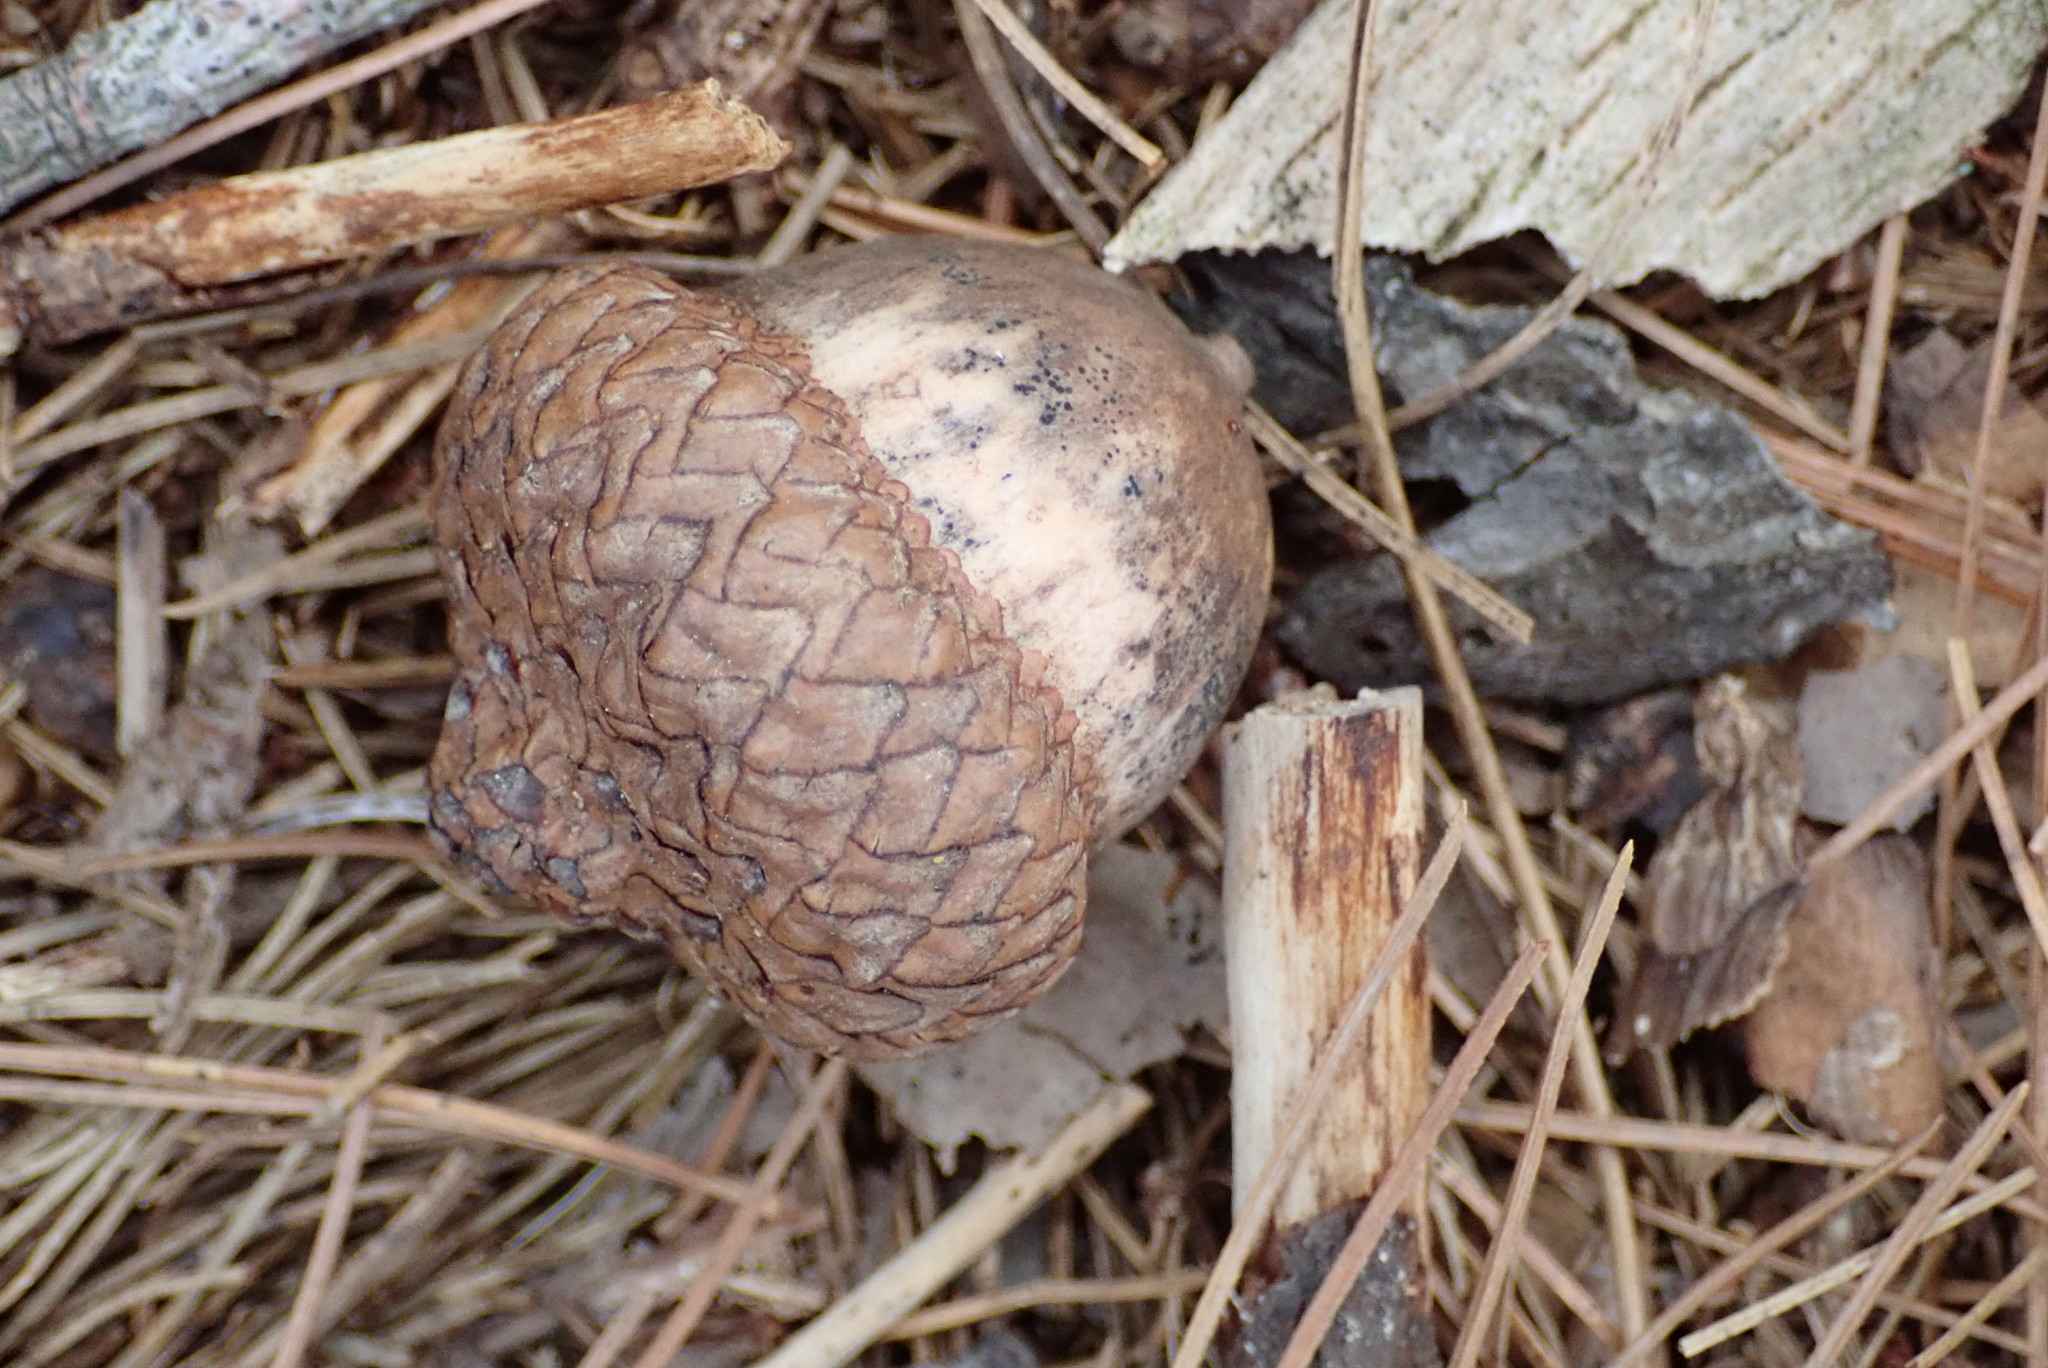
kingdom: Plantae
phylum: Tracheophyta
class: Magnoliopsida
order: Fagales
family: Fagaceae
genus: Quercus
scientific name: Quercus velutina
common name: Black oak
